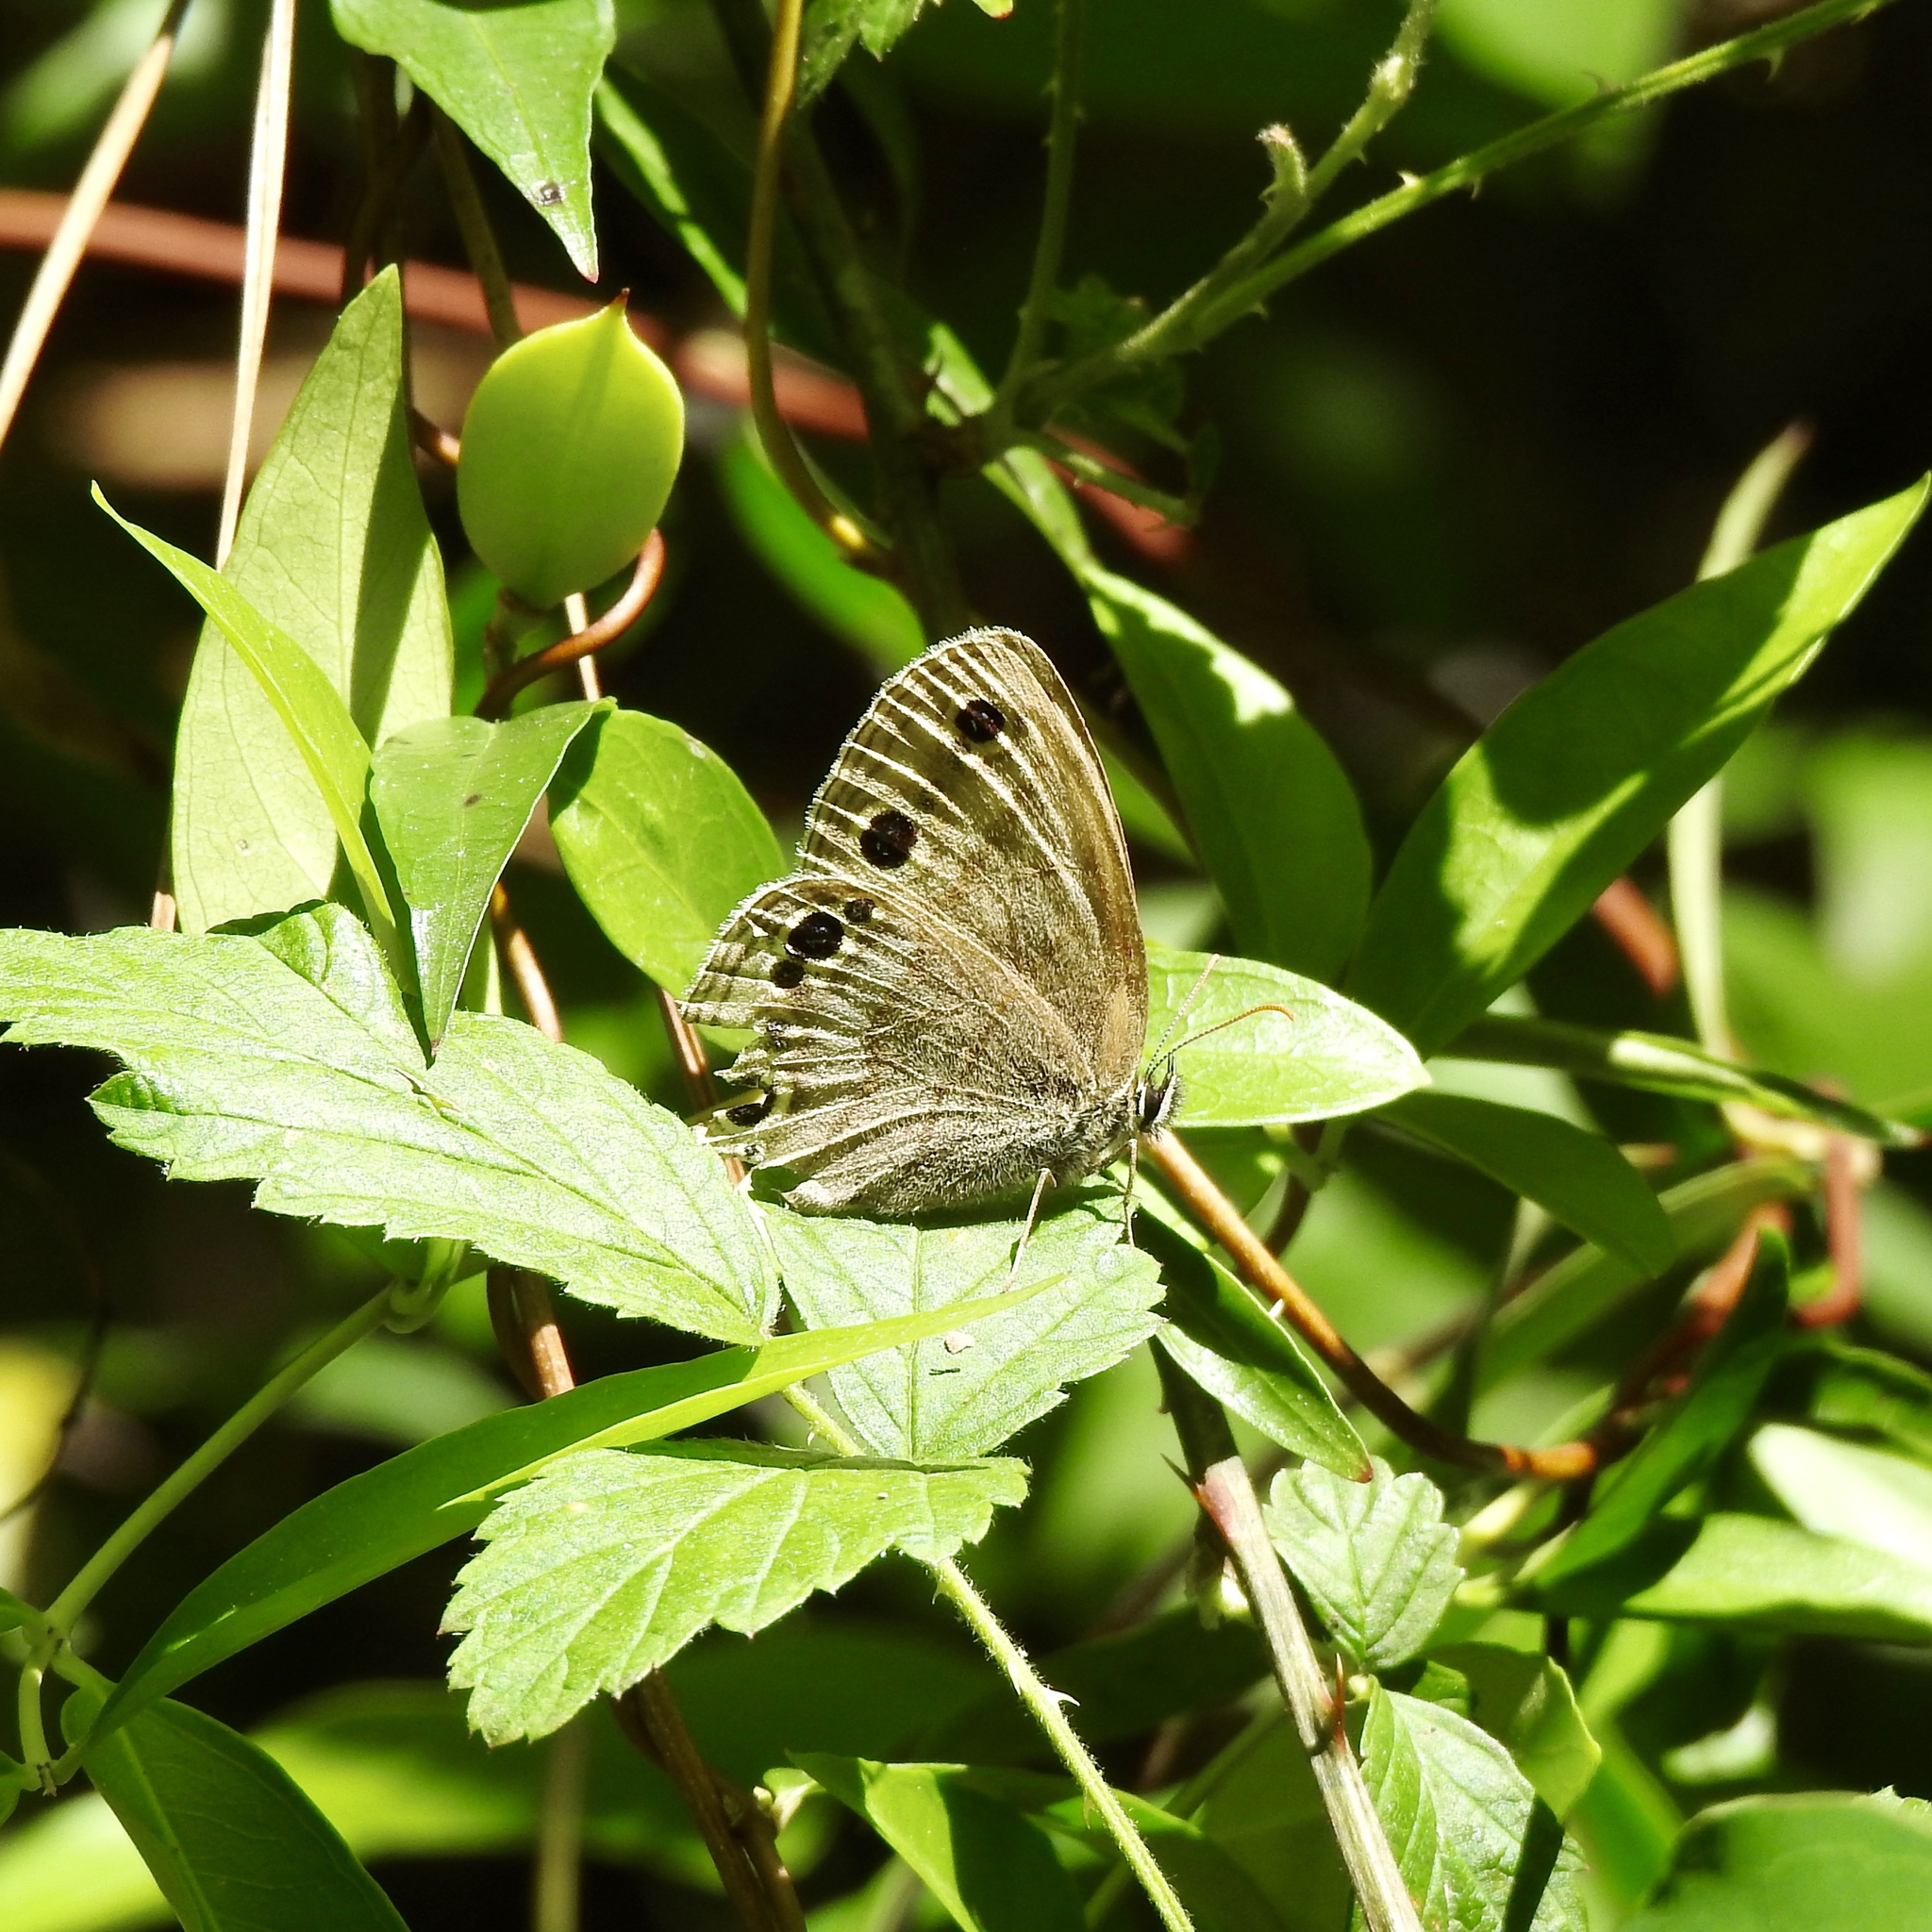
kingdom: Animalia
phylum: Arthropoda
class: Insecta
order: Lepidoptera
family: Nymphalidae
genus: Euptychia
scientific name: Euptychia cymela
